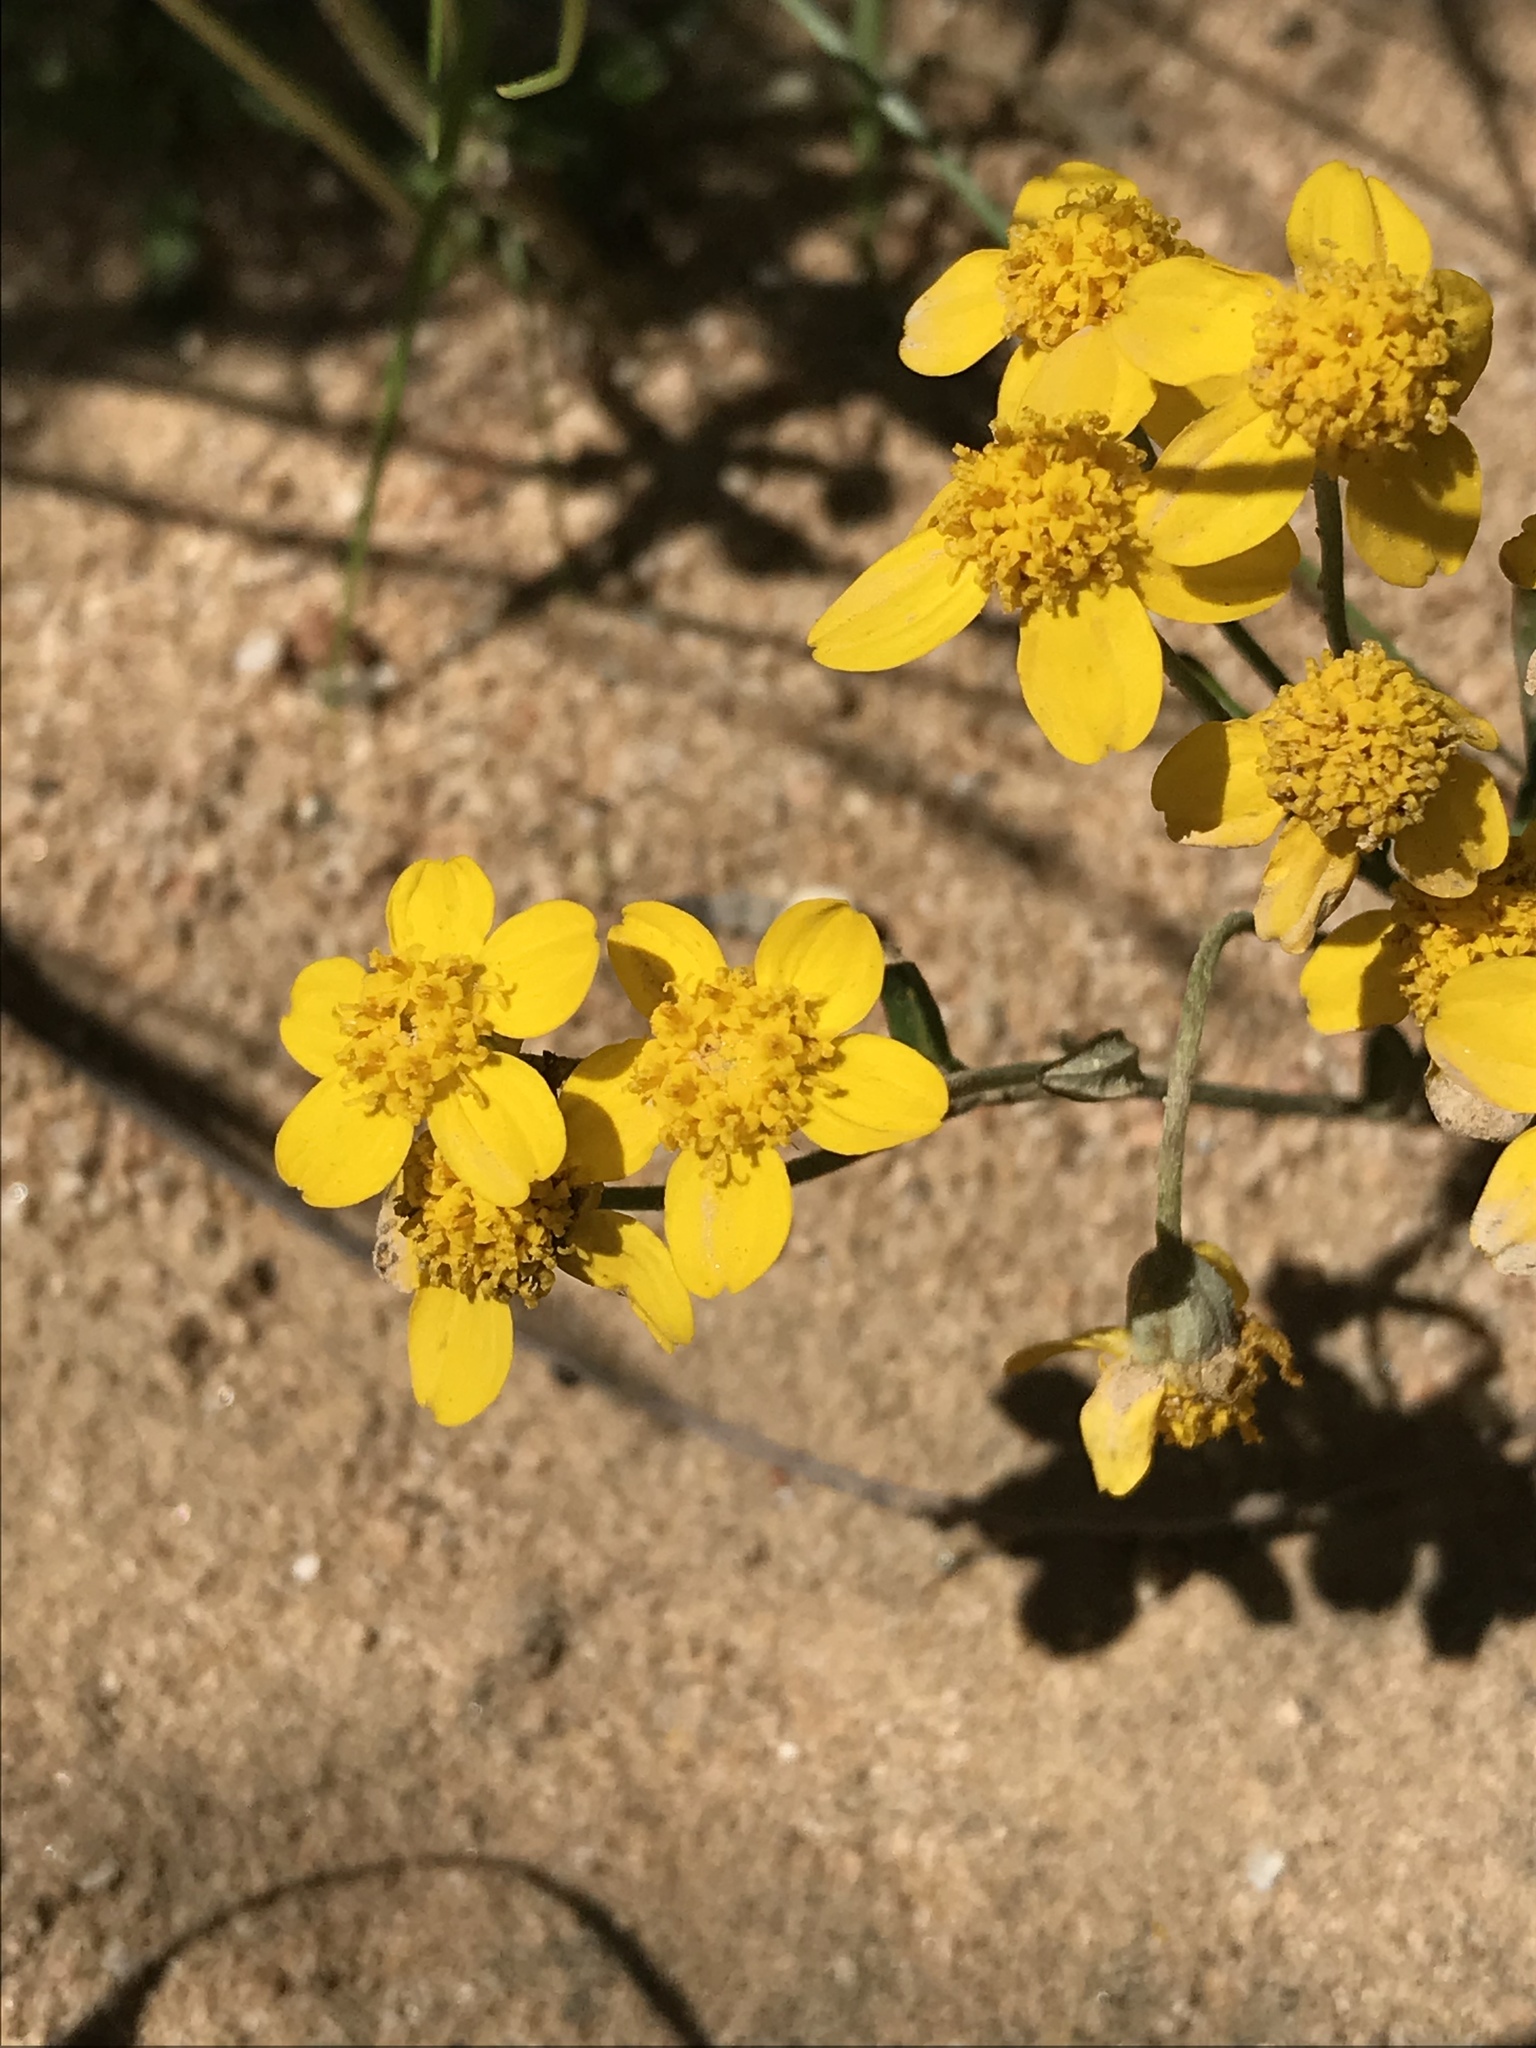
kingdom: Plantae
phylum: Tracheophyta
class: Magnoliopsida
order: Asterales
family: Asteraceae
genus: Eriophyllum
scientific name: Eriophyllum confertiflorum
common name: Golden-yarrow
